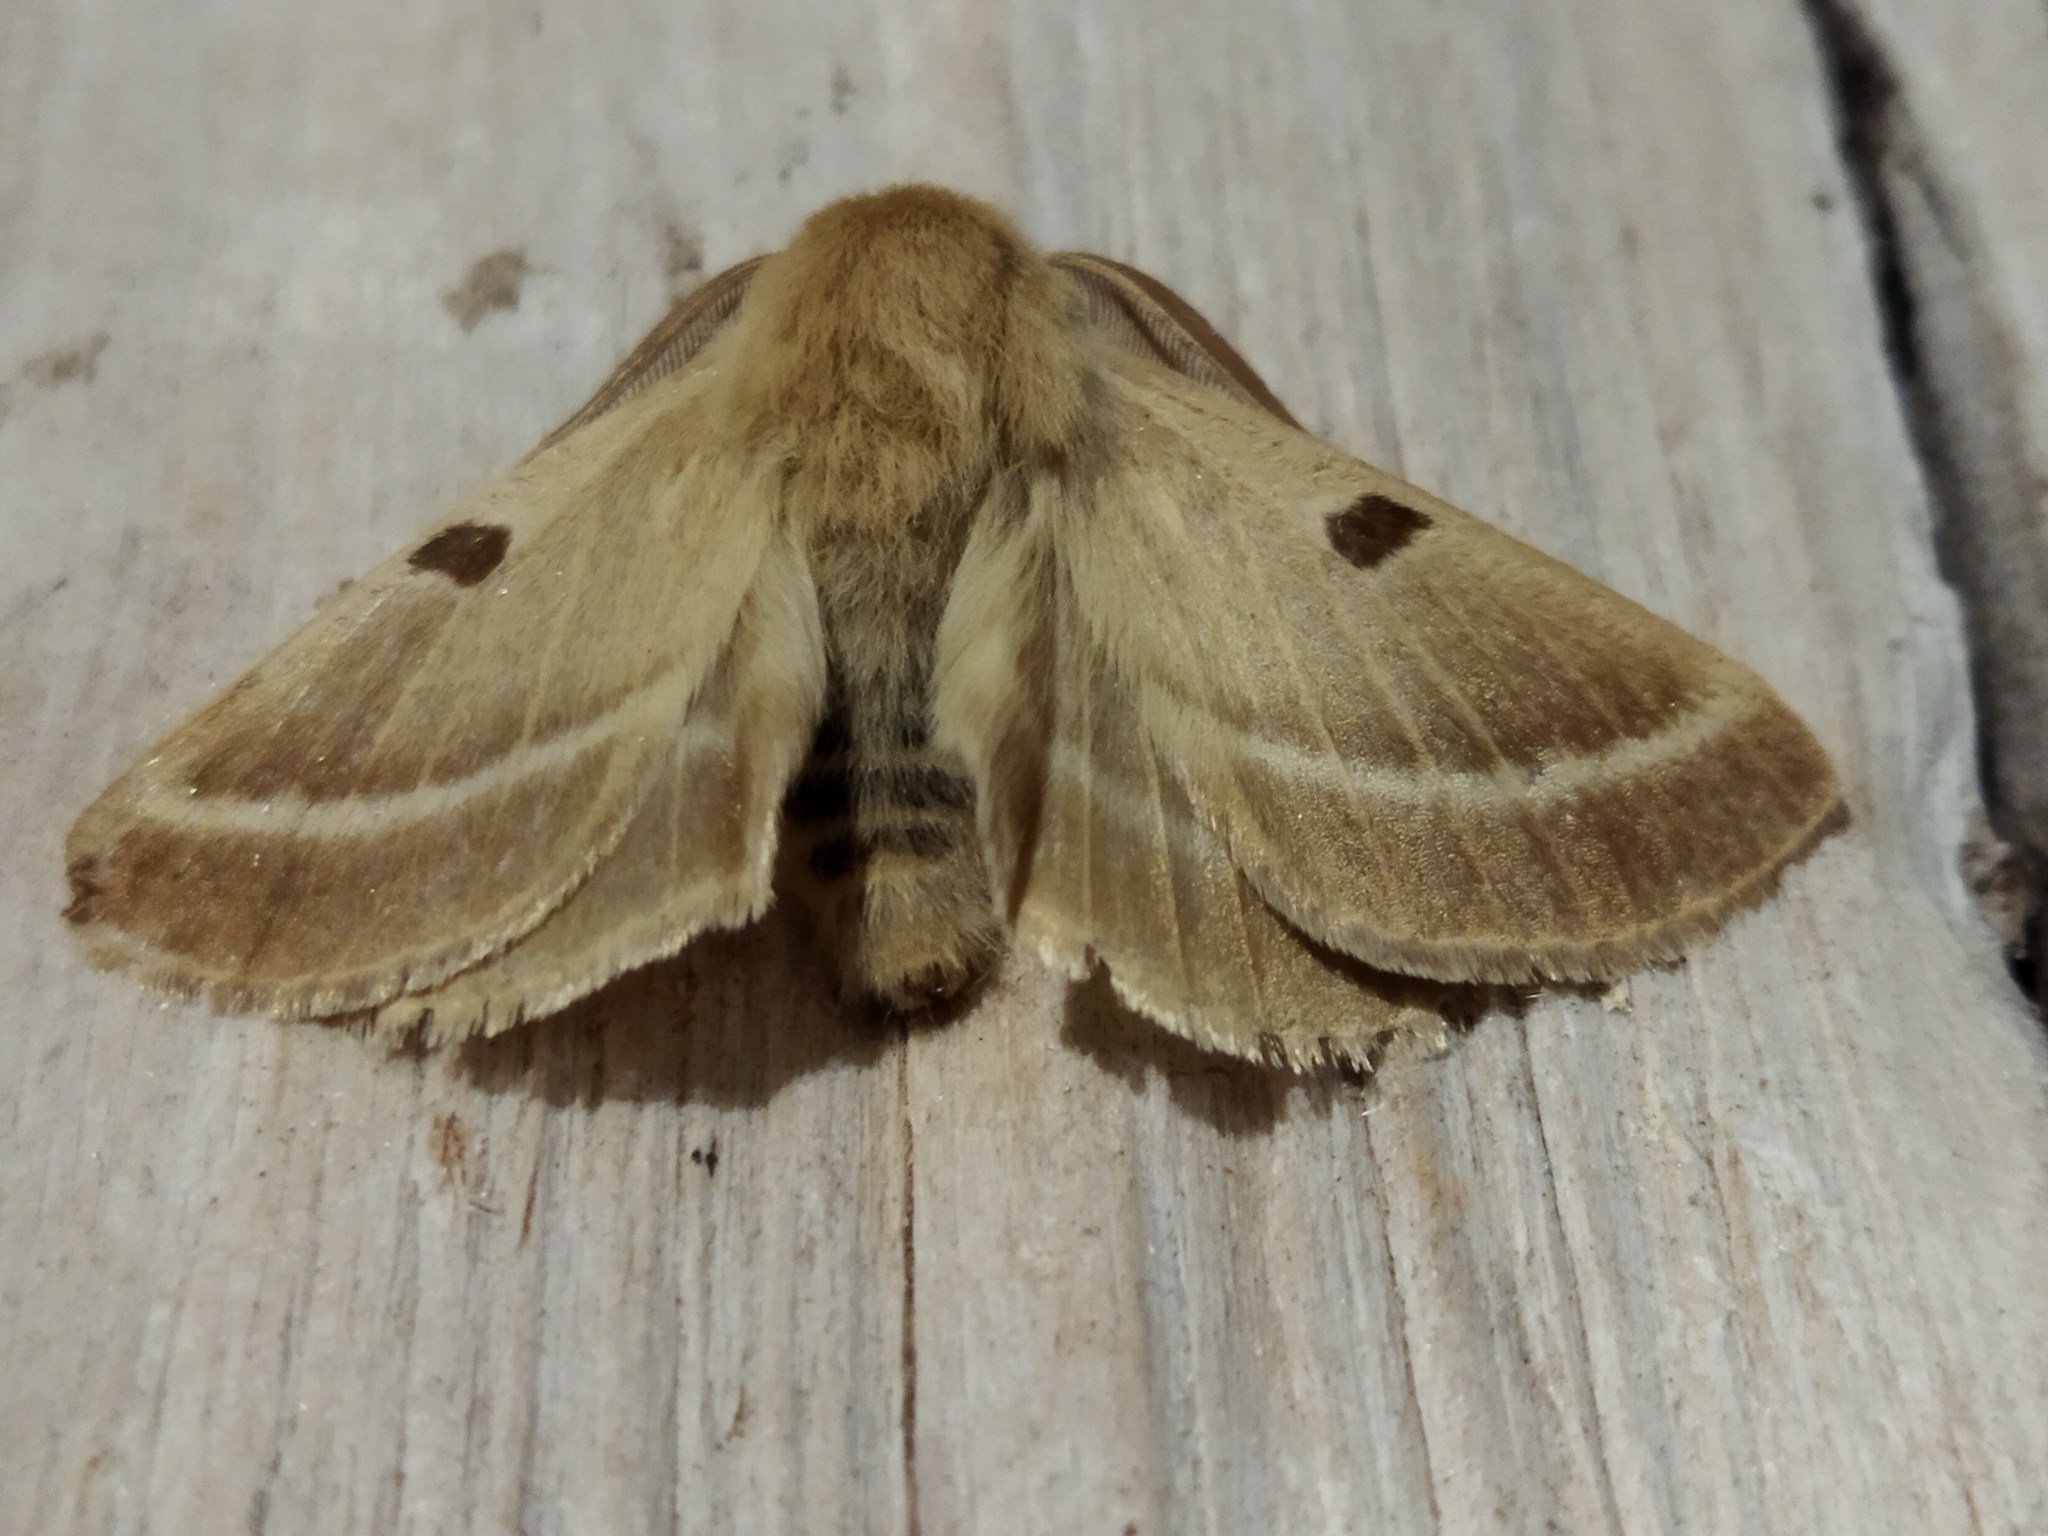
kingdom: Animalia
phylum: Arthropoda
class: Insecta
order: Lepidoptera
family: Brahmaeidae
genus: Lemonia
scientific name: Lemonia balcanica
